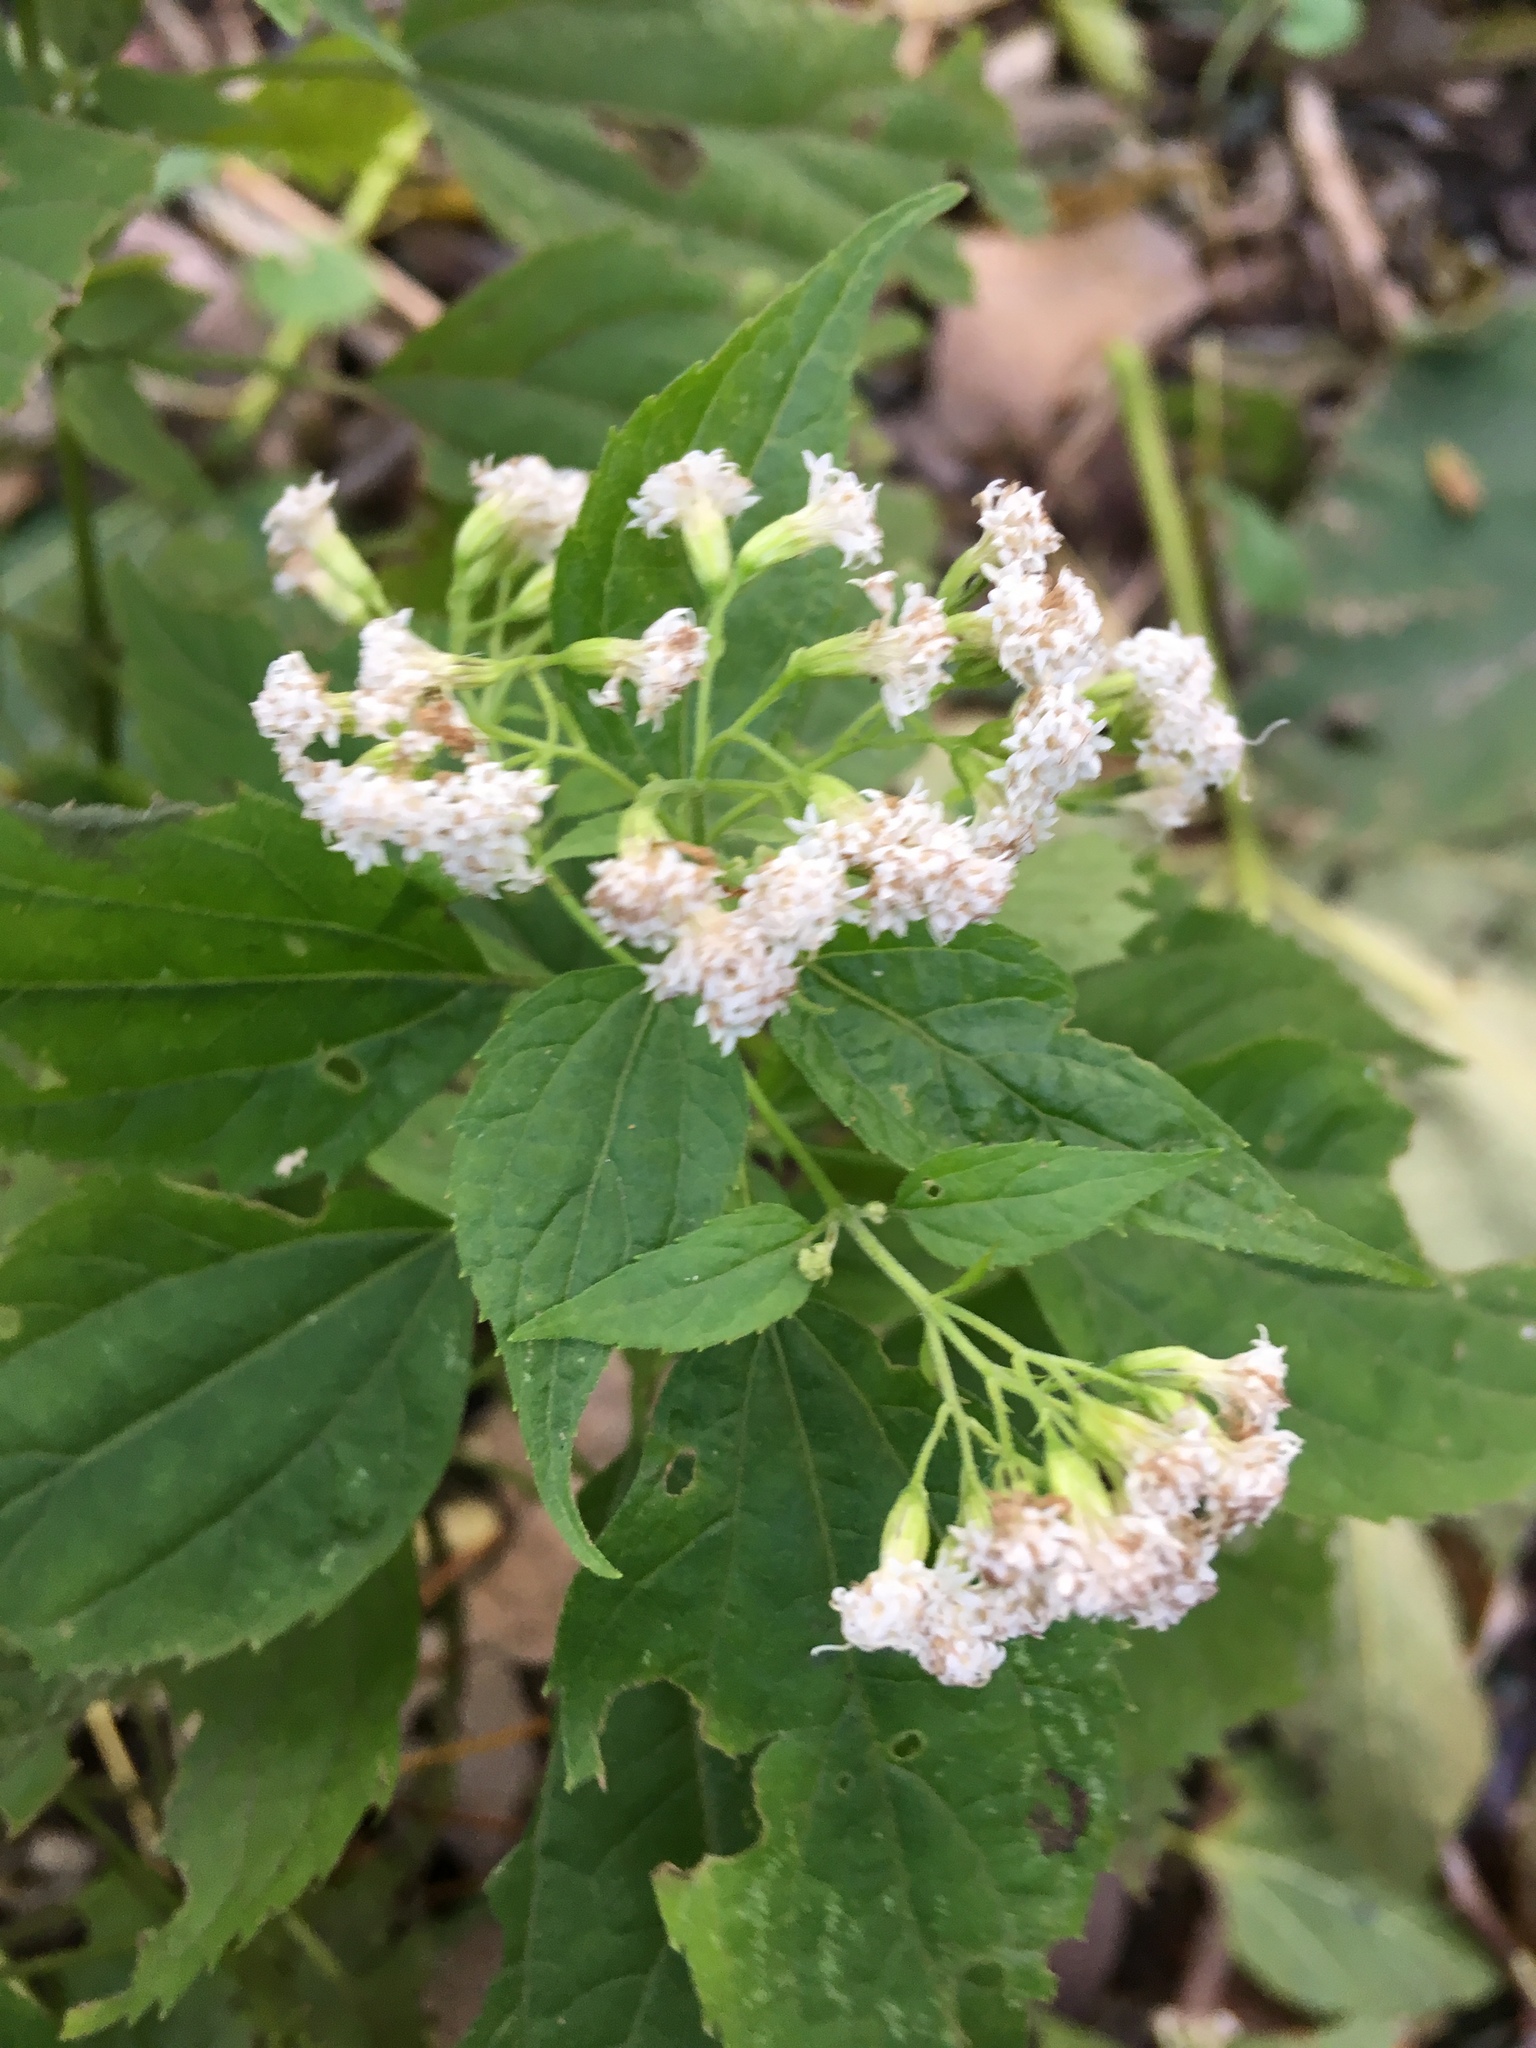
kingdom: Plantae
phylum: Tracheophyta
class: Magnoliopsida
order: Asterales
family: Asteraceae
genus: Ageratina
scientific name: Ageratina altissima
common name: White snakeroot
